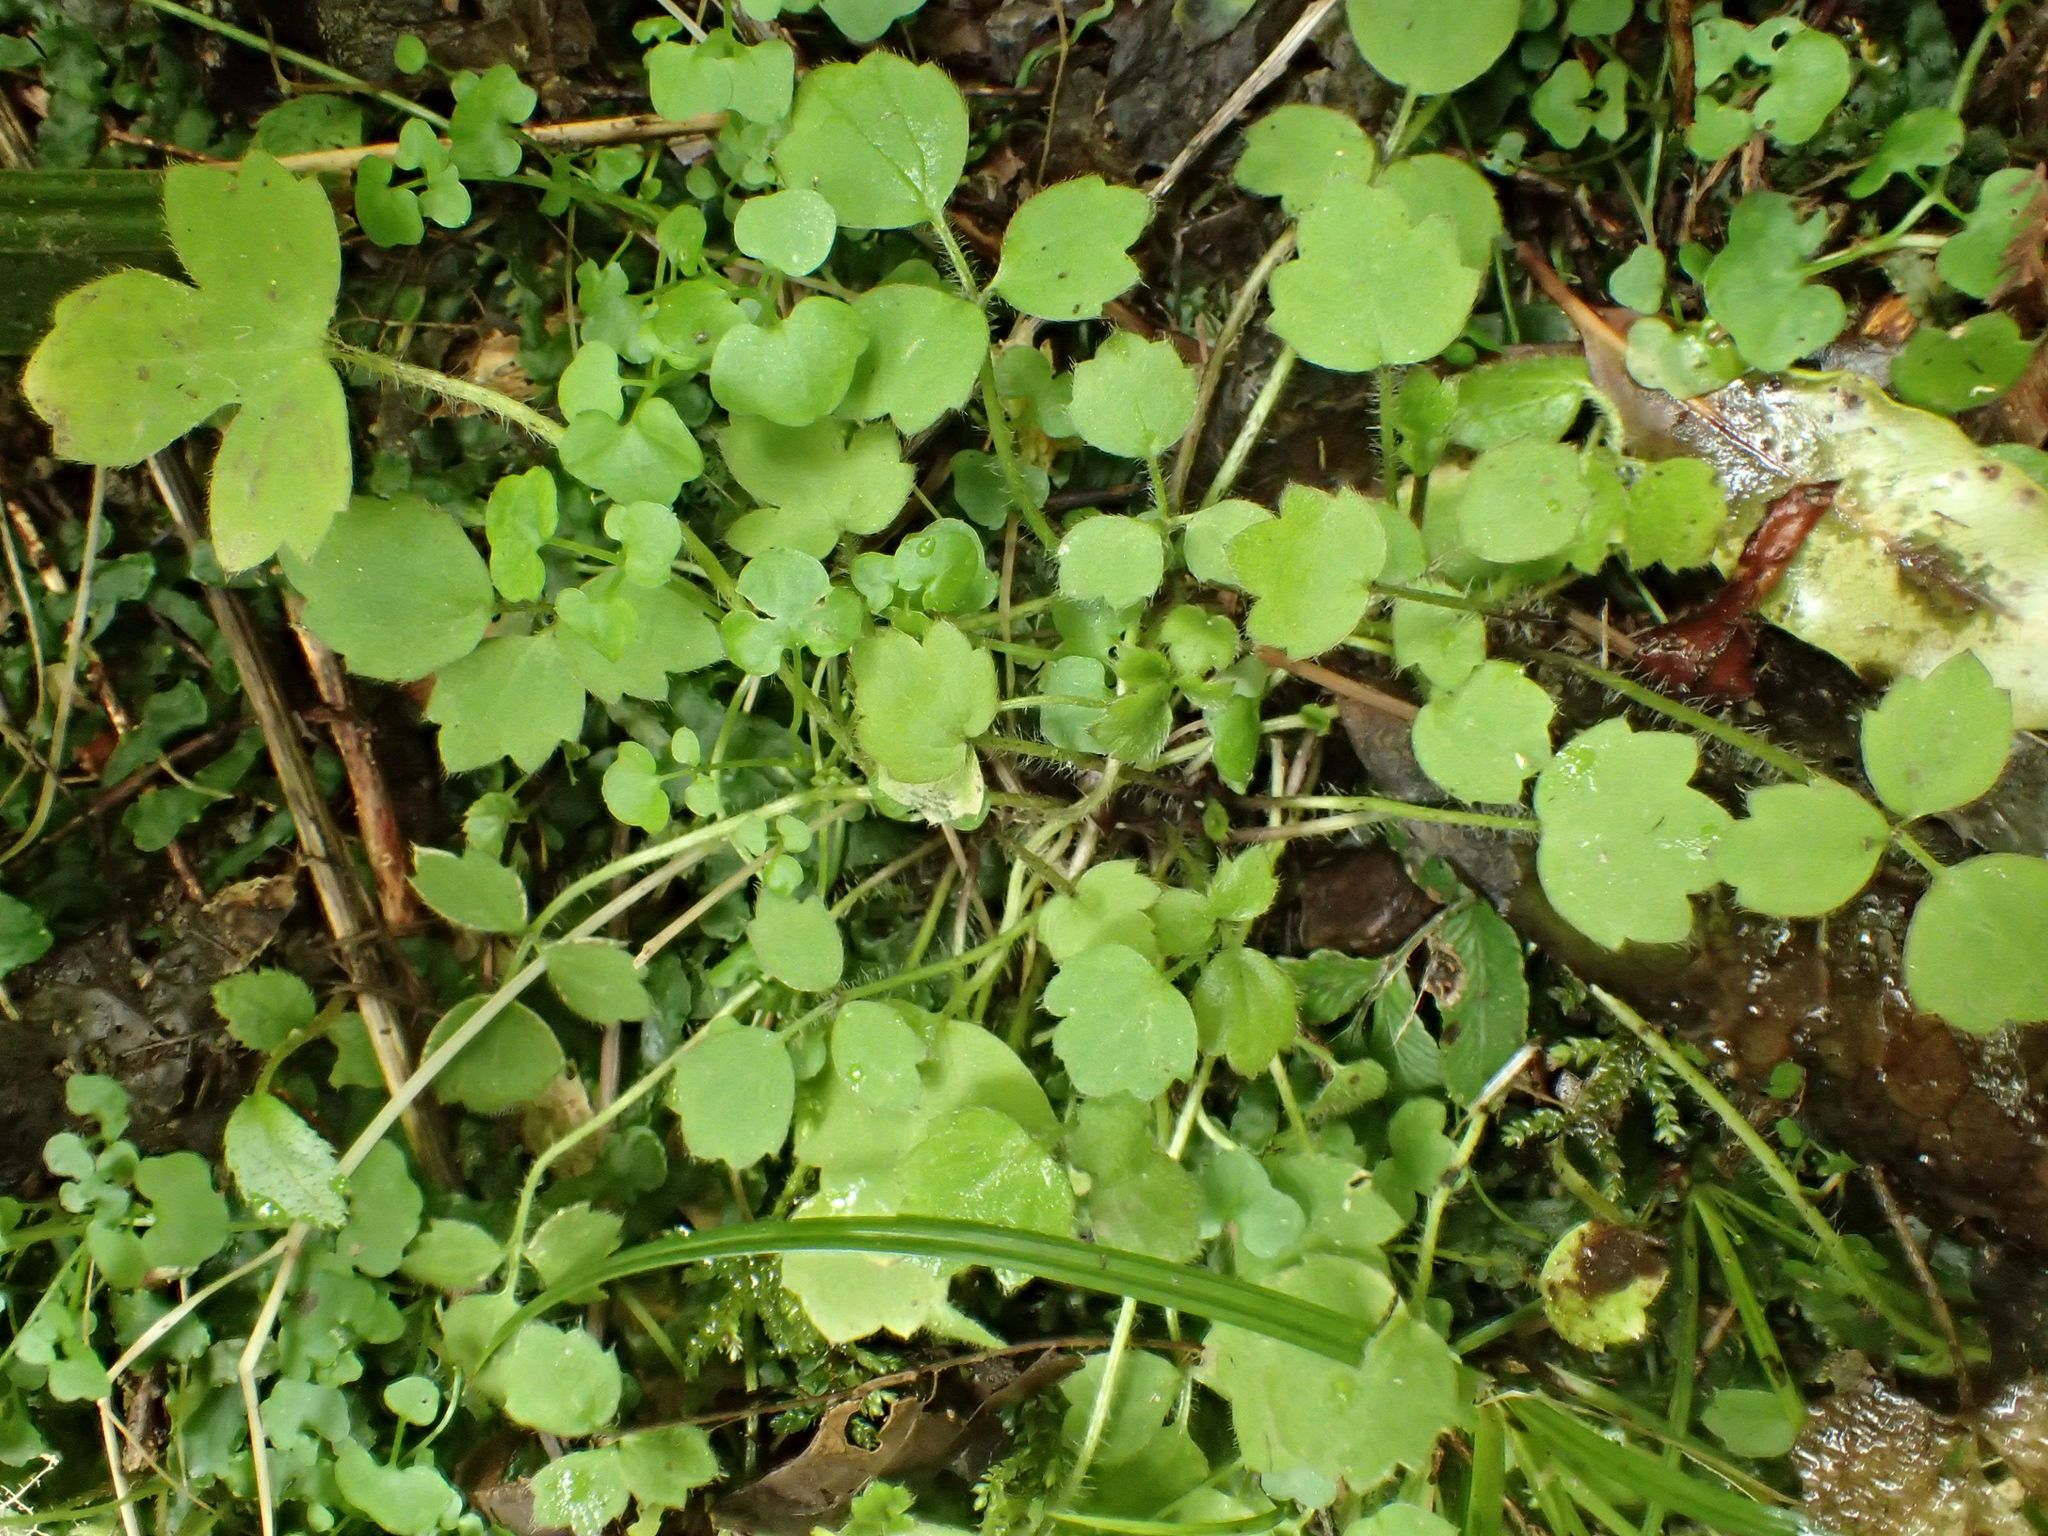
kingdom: Plantae
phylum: Tracheophyta
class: Magnoliopsida
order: Ranunculales
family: Ranunculaceae
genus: Ranunculus
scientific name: Ranunculus reflexus
